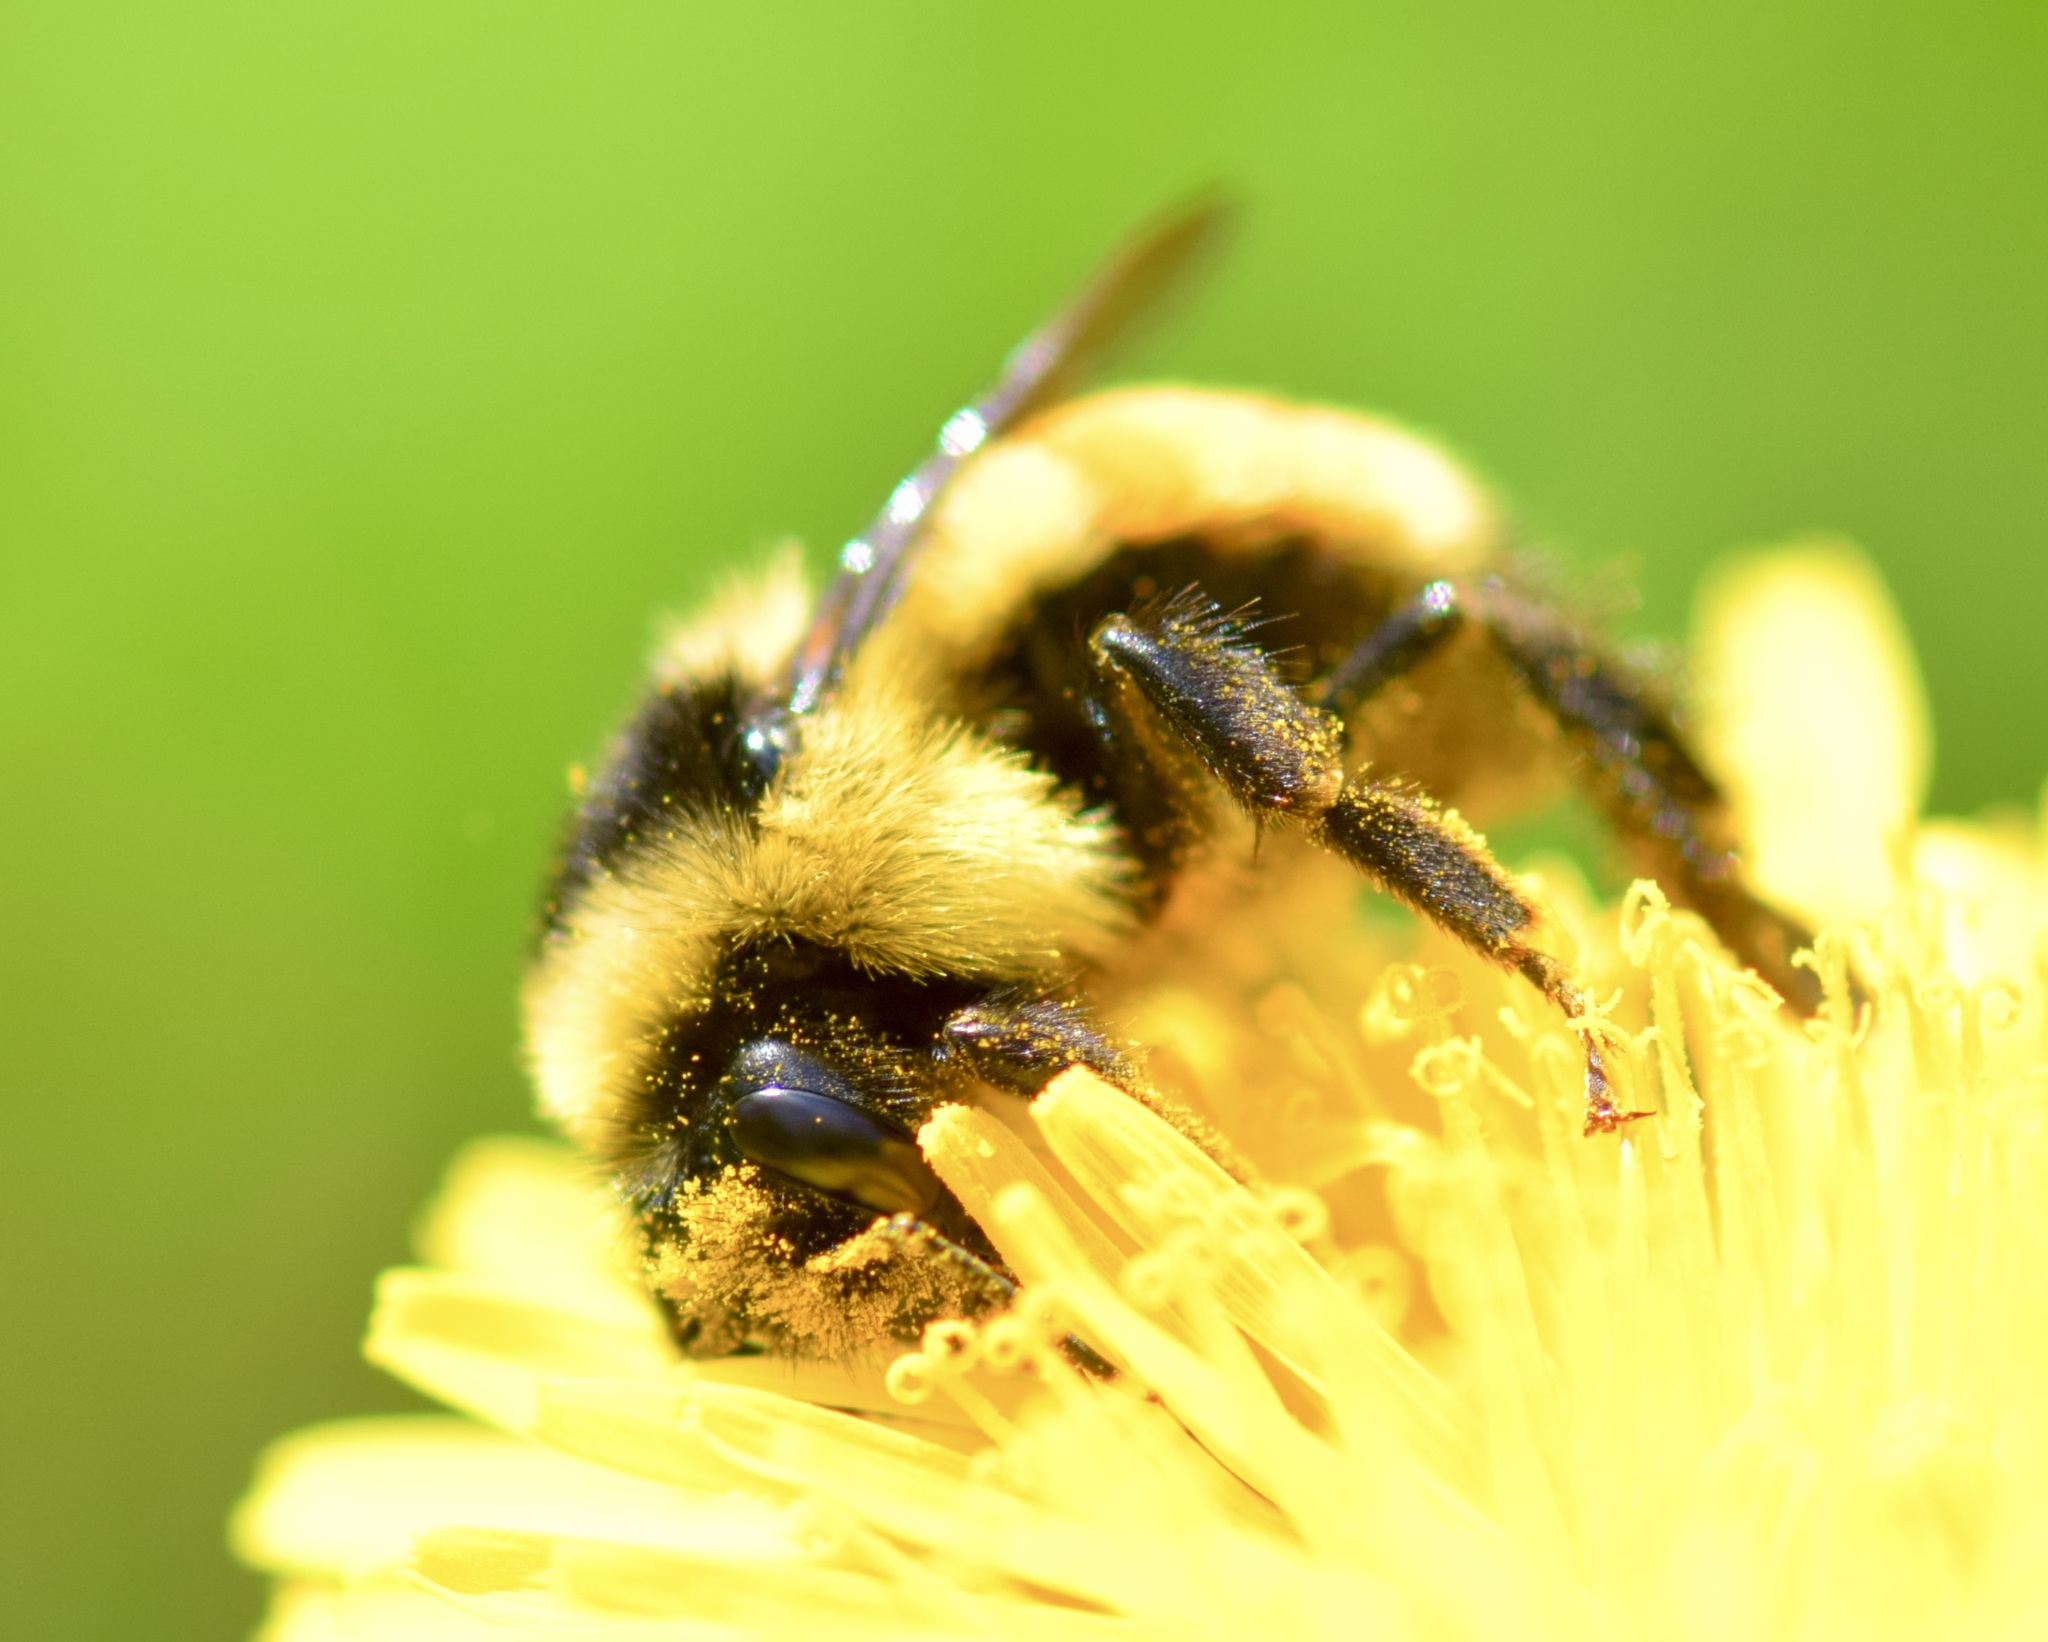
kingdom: Animalia
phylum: Arthropoda
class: Insecta
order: Hymenoptera
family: Apidae
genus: Bombus
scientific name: Bombus ternarius
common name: Tri-colored bumble bee
